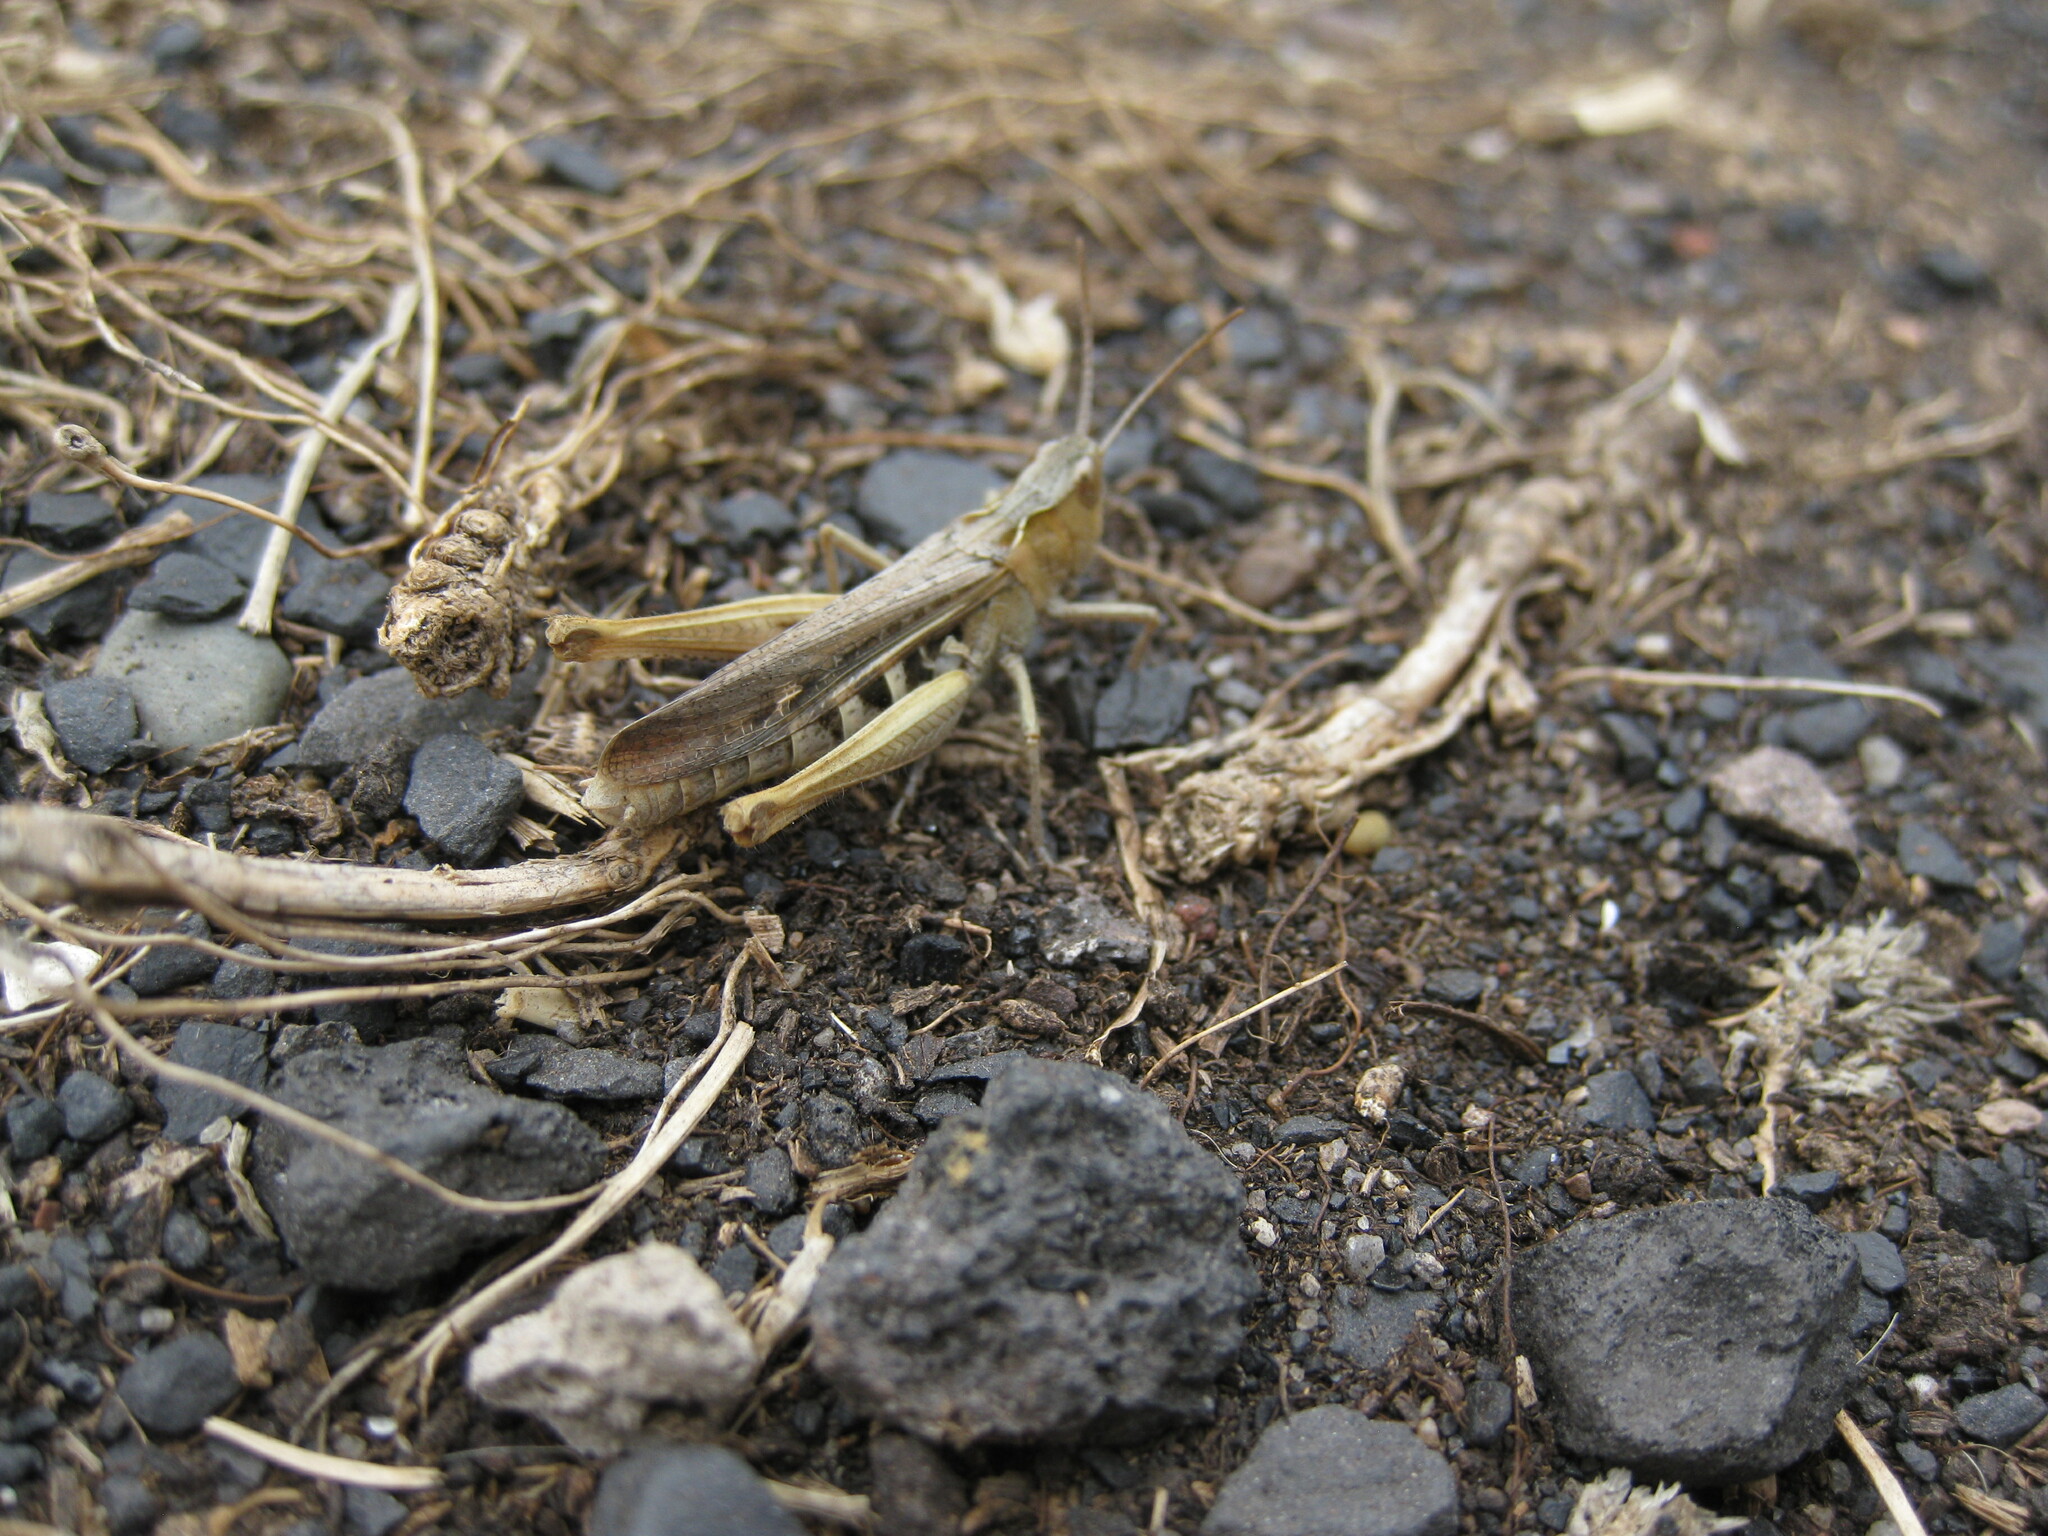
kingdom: Animalia
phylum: Arthropoda
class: Insecta
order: Orthoptera
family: Acrididae
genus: Chorthippus
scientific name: Chorthippus brunneus
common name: Field grasshopper
